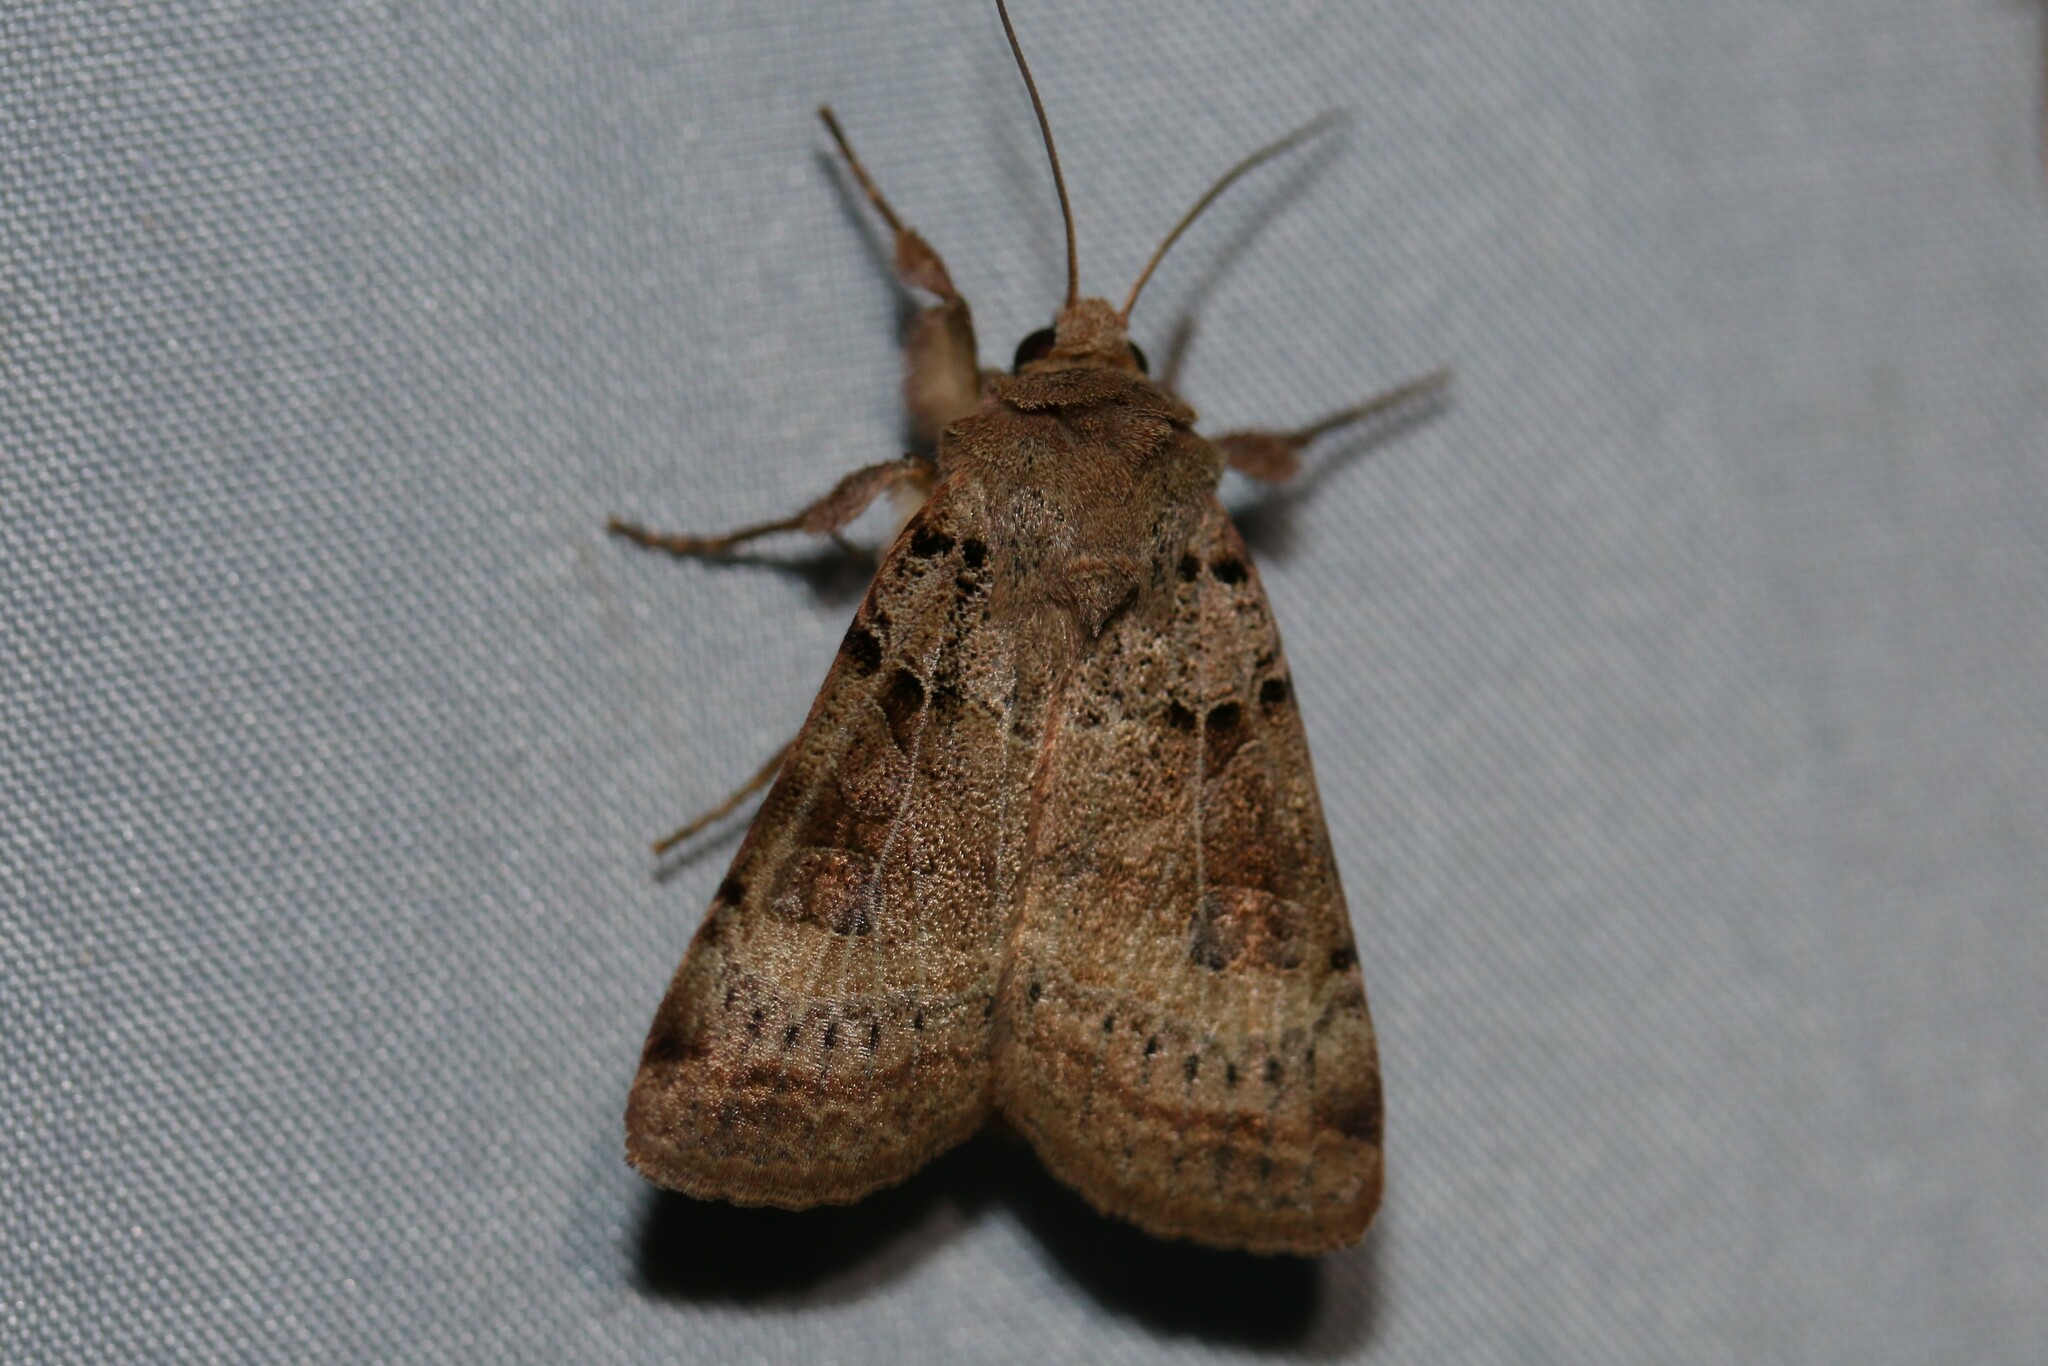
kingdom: Animalia
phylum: Arthropoda
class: Insecta
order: Lepidoptera
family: Noctuidae
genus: Eugnorisma
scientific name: Eugnorisma depuncta
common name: Plain clay
